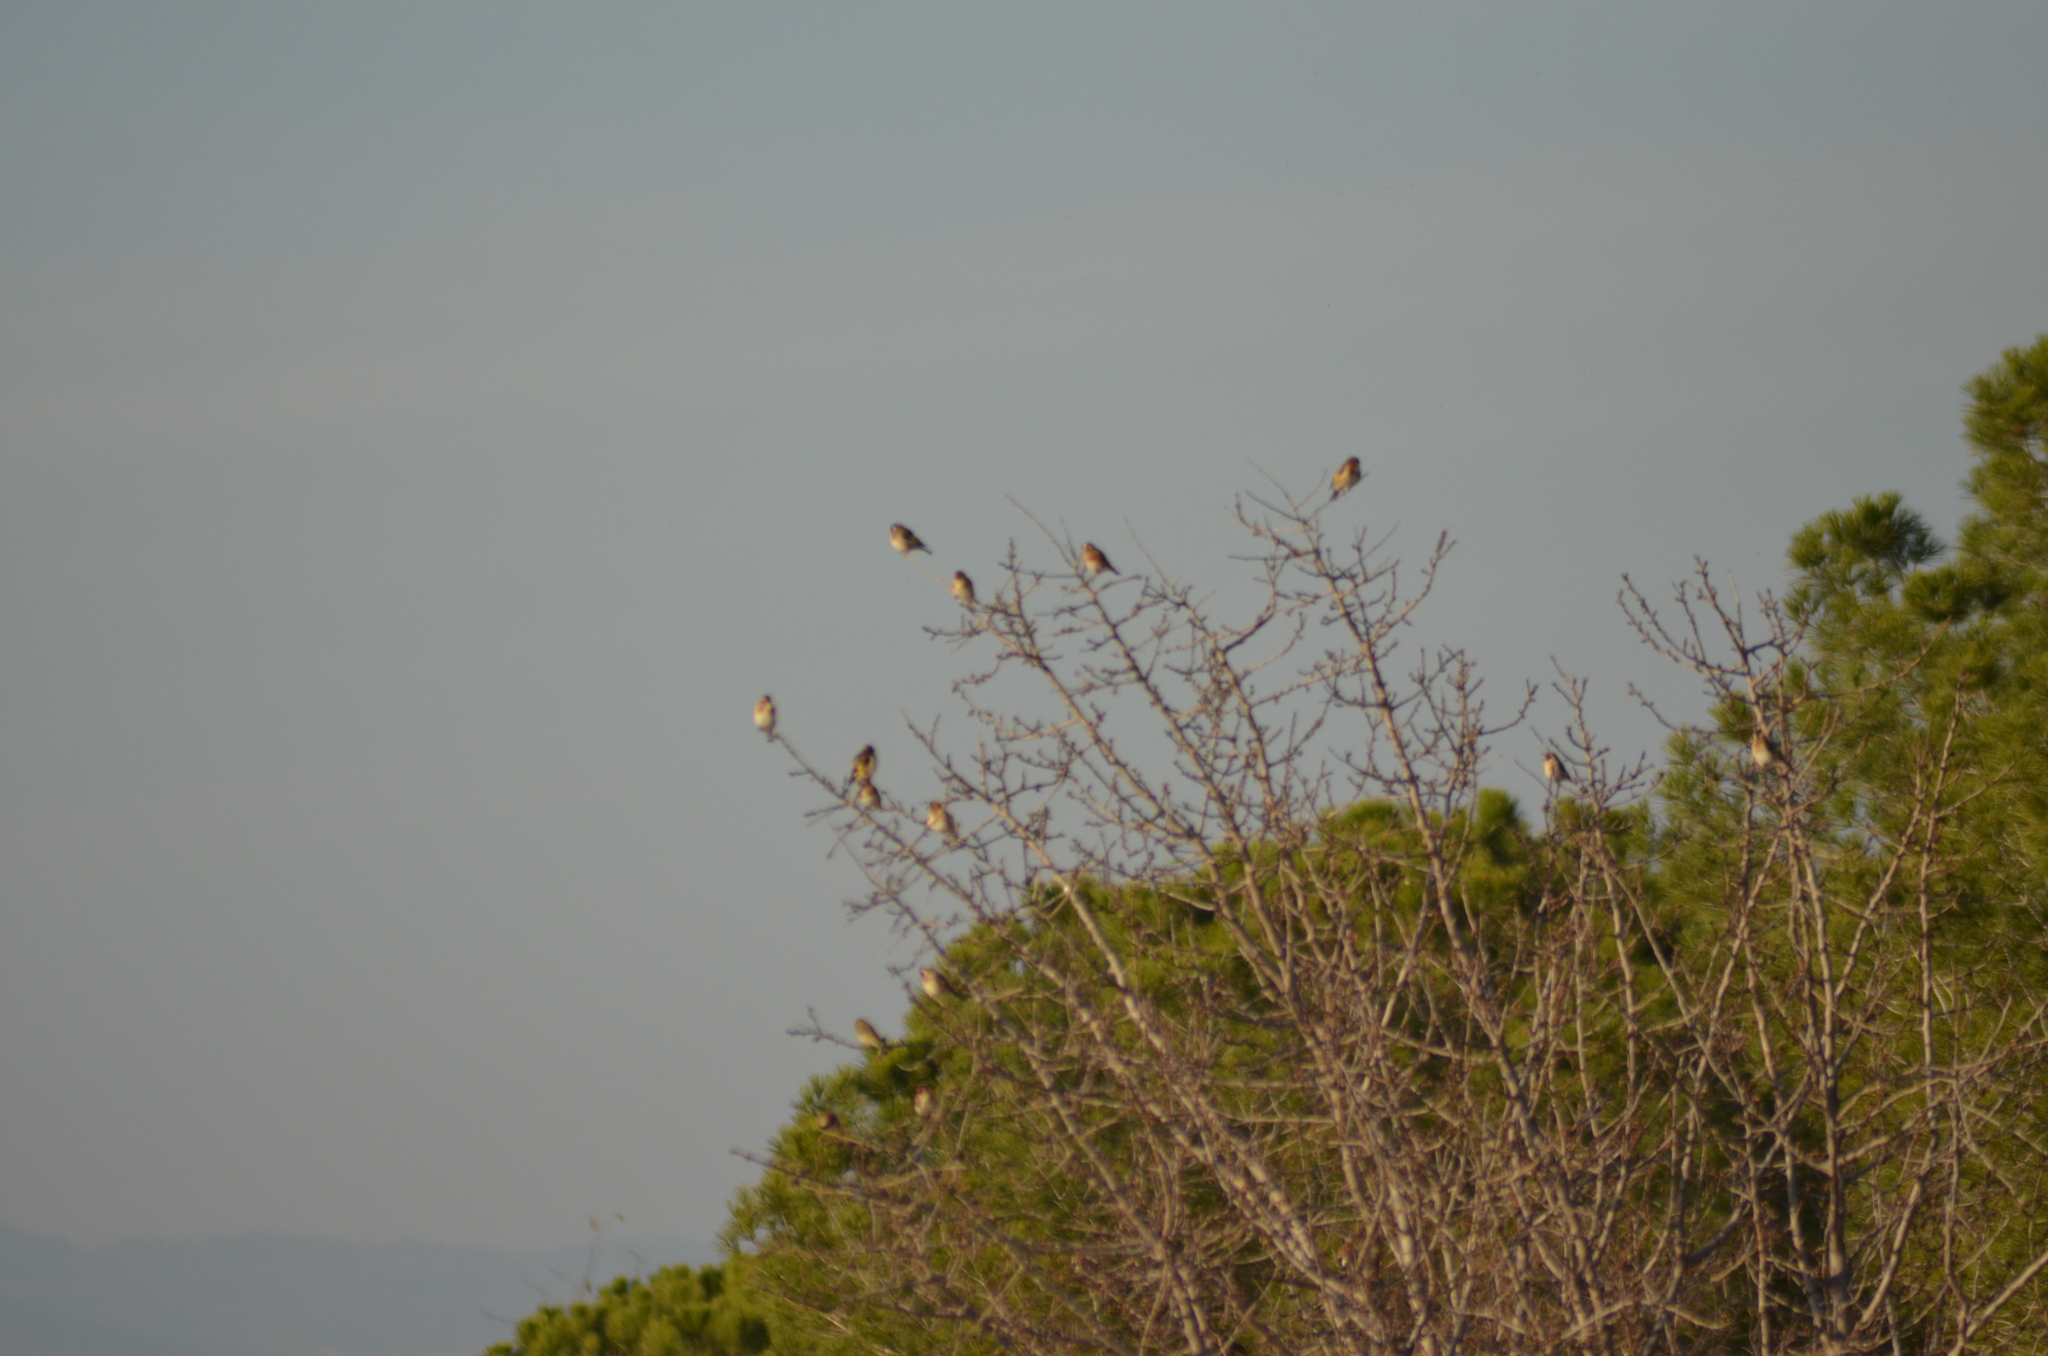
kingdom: Animalia
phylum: Chordata
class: Aves
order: Passeriformes
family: Fringillidae
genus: Carduelis
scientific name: Carduelis carduelis
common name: European goldfinch
